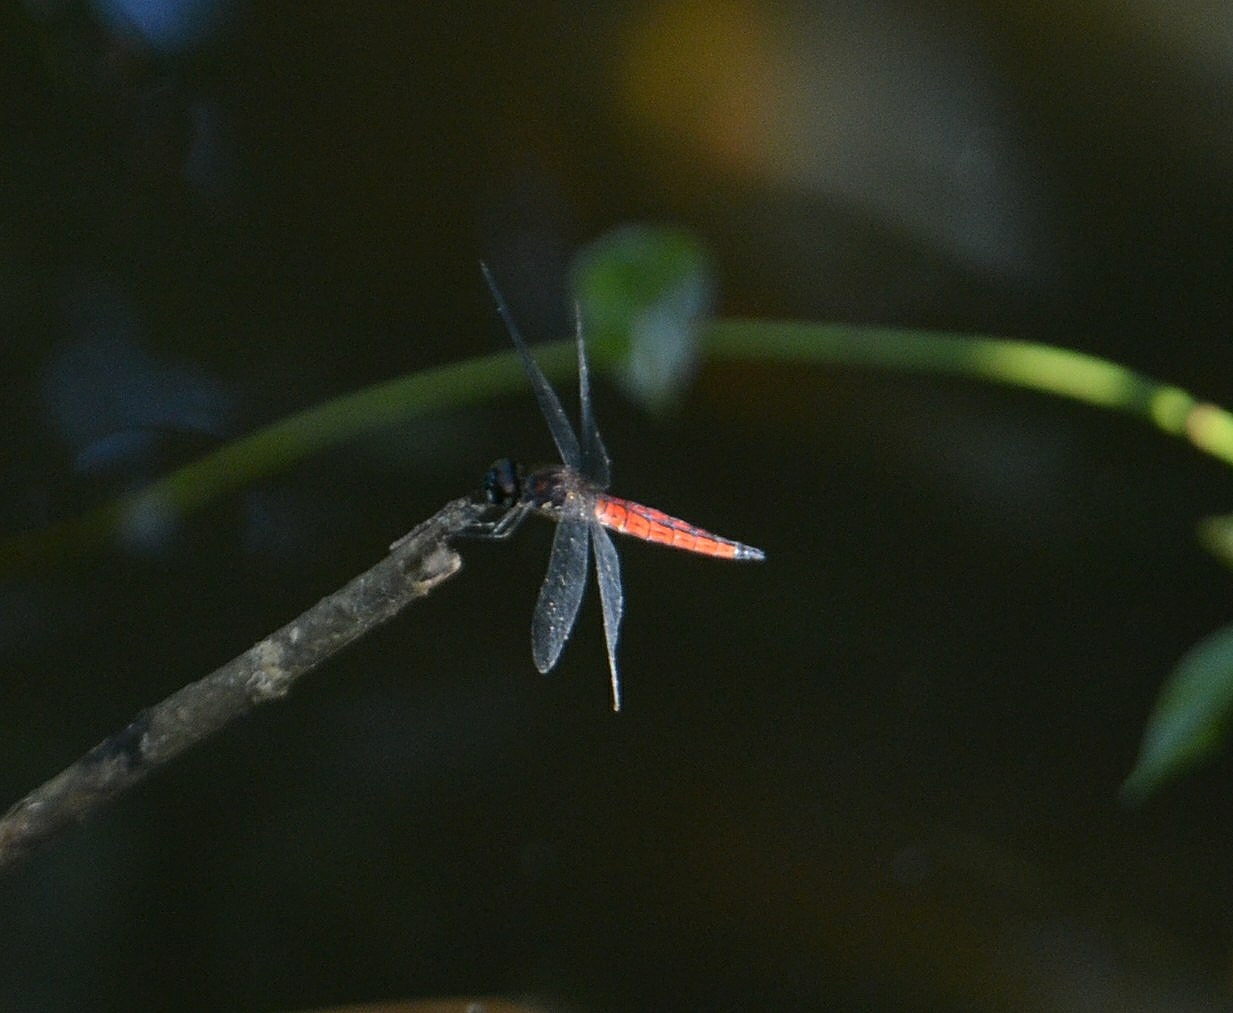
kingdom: Animalia
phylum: Arthropoda
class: Insecta
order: Odonata
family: Libellulidae
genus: Lyriothemis
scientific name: Lyriothemis acigastra
